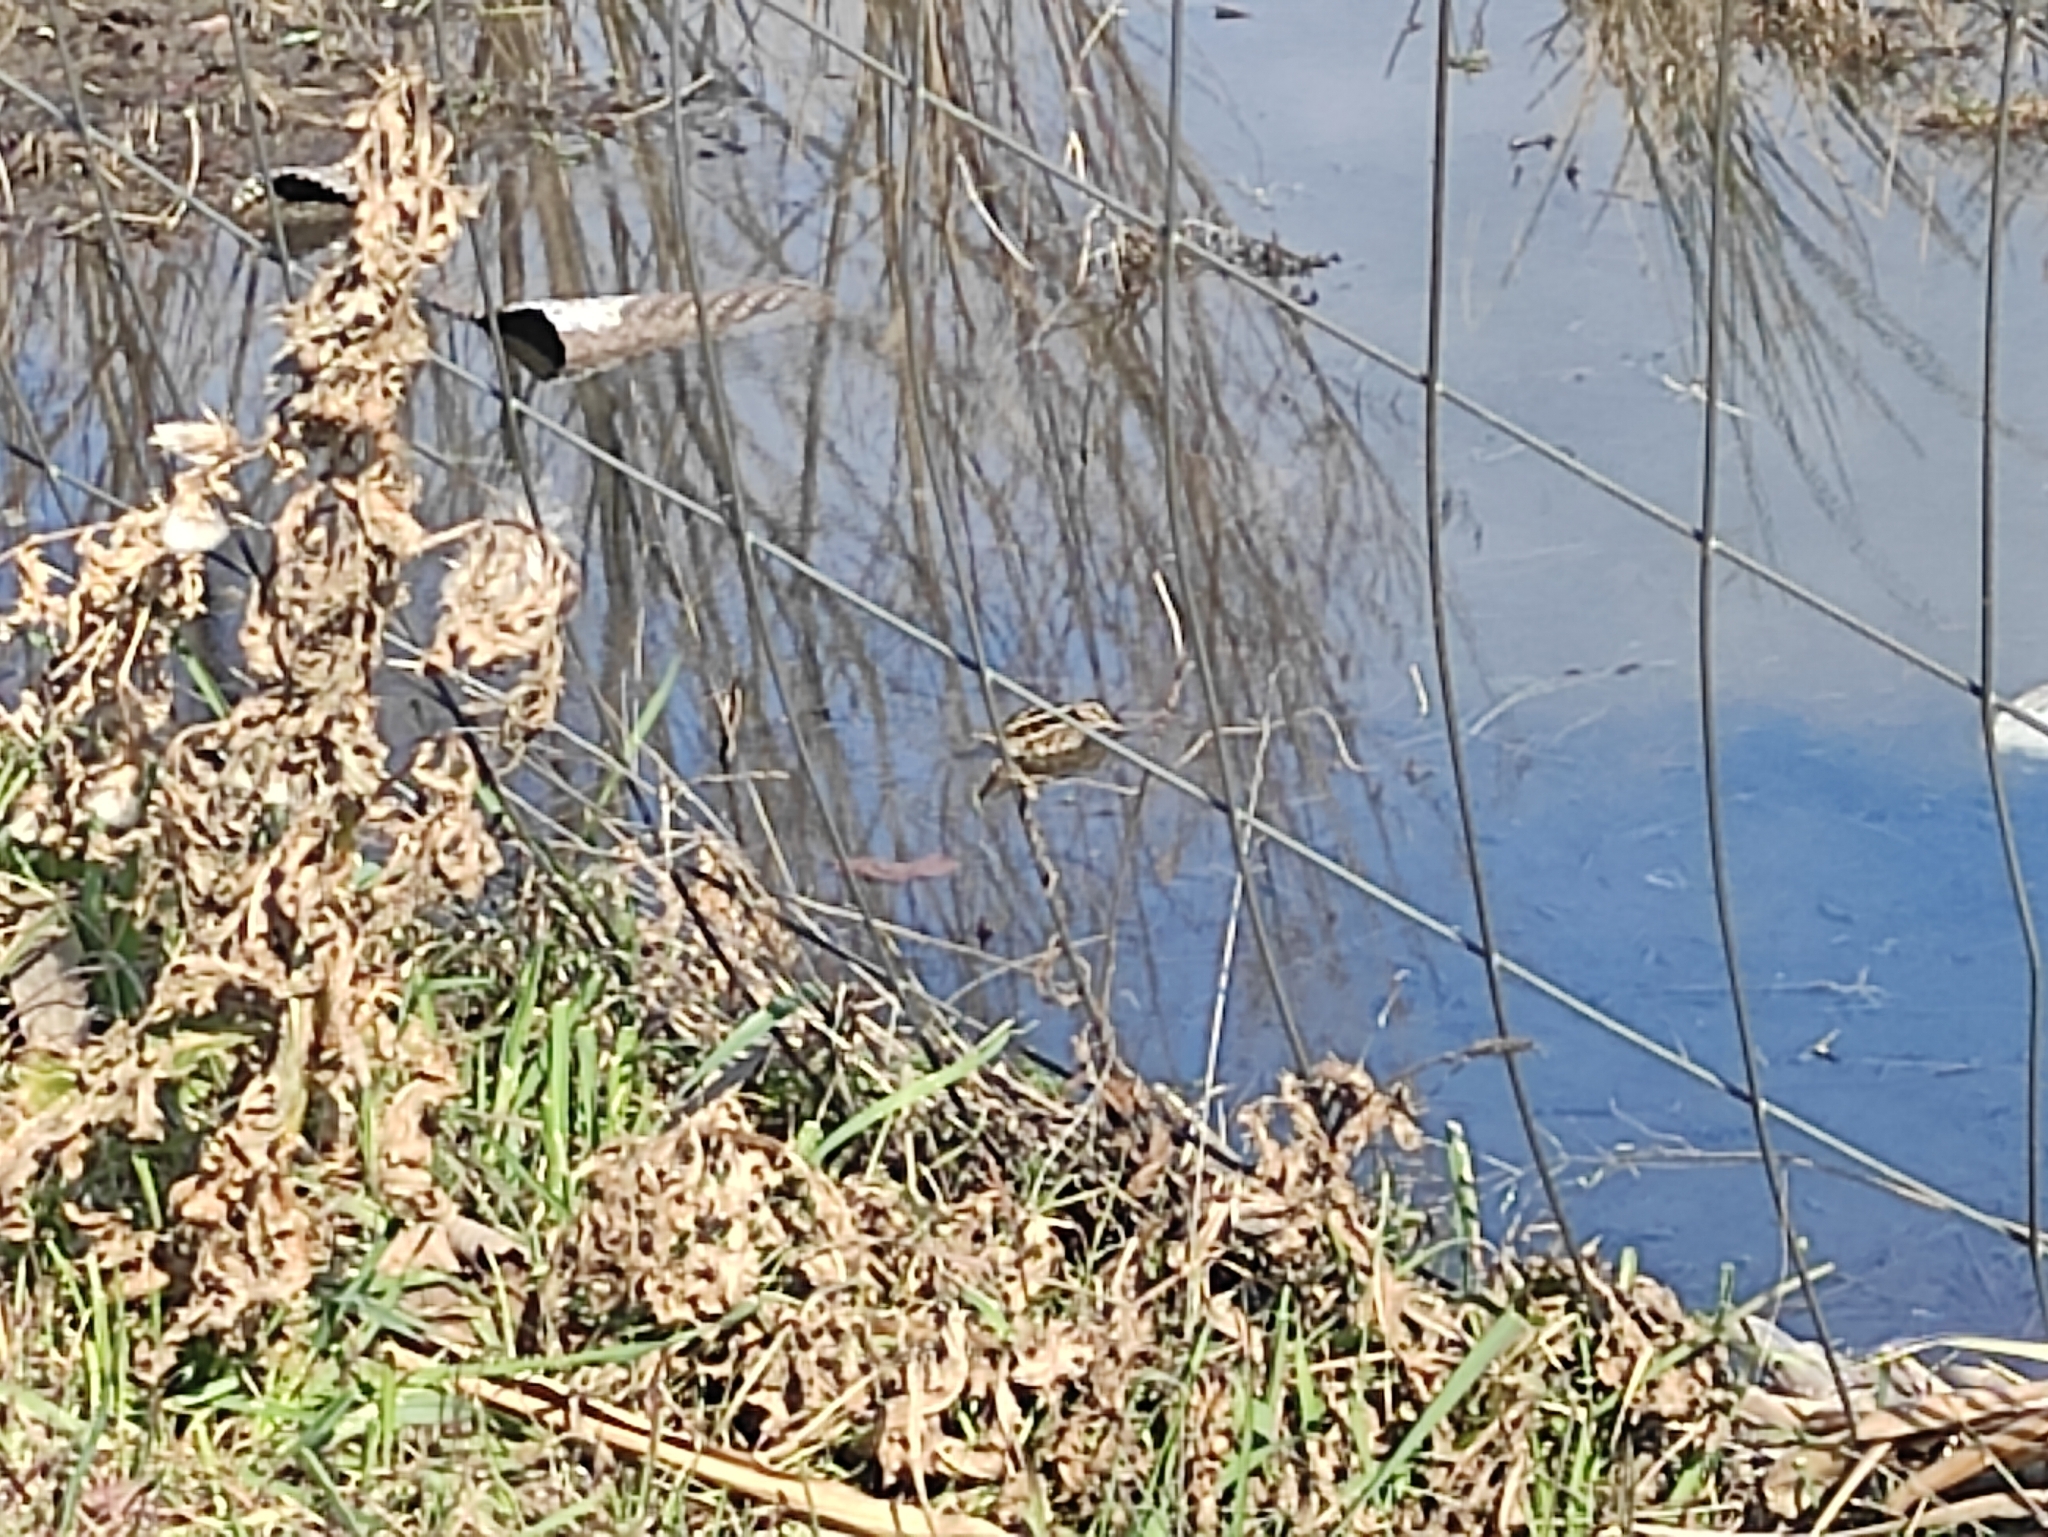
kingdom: Animalia
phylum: Chordata
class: Aves
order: Charadriiformes
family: Scolopacidae
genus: Lymnocryptes
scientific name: Lymnocryptes minimus
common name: Jack snipe
